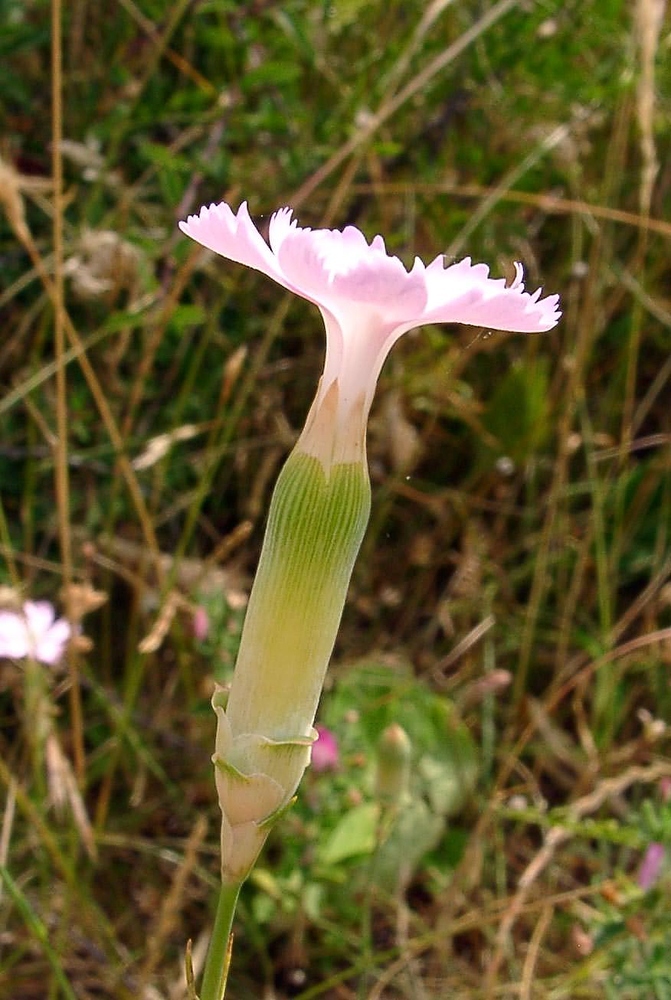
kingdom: Plantae
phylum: Tracheophyta
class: Magnoliopsida
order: Caryophyllales
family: Caryophyllaceae
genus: Dianthus
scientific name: Dianthus virgineus
